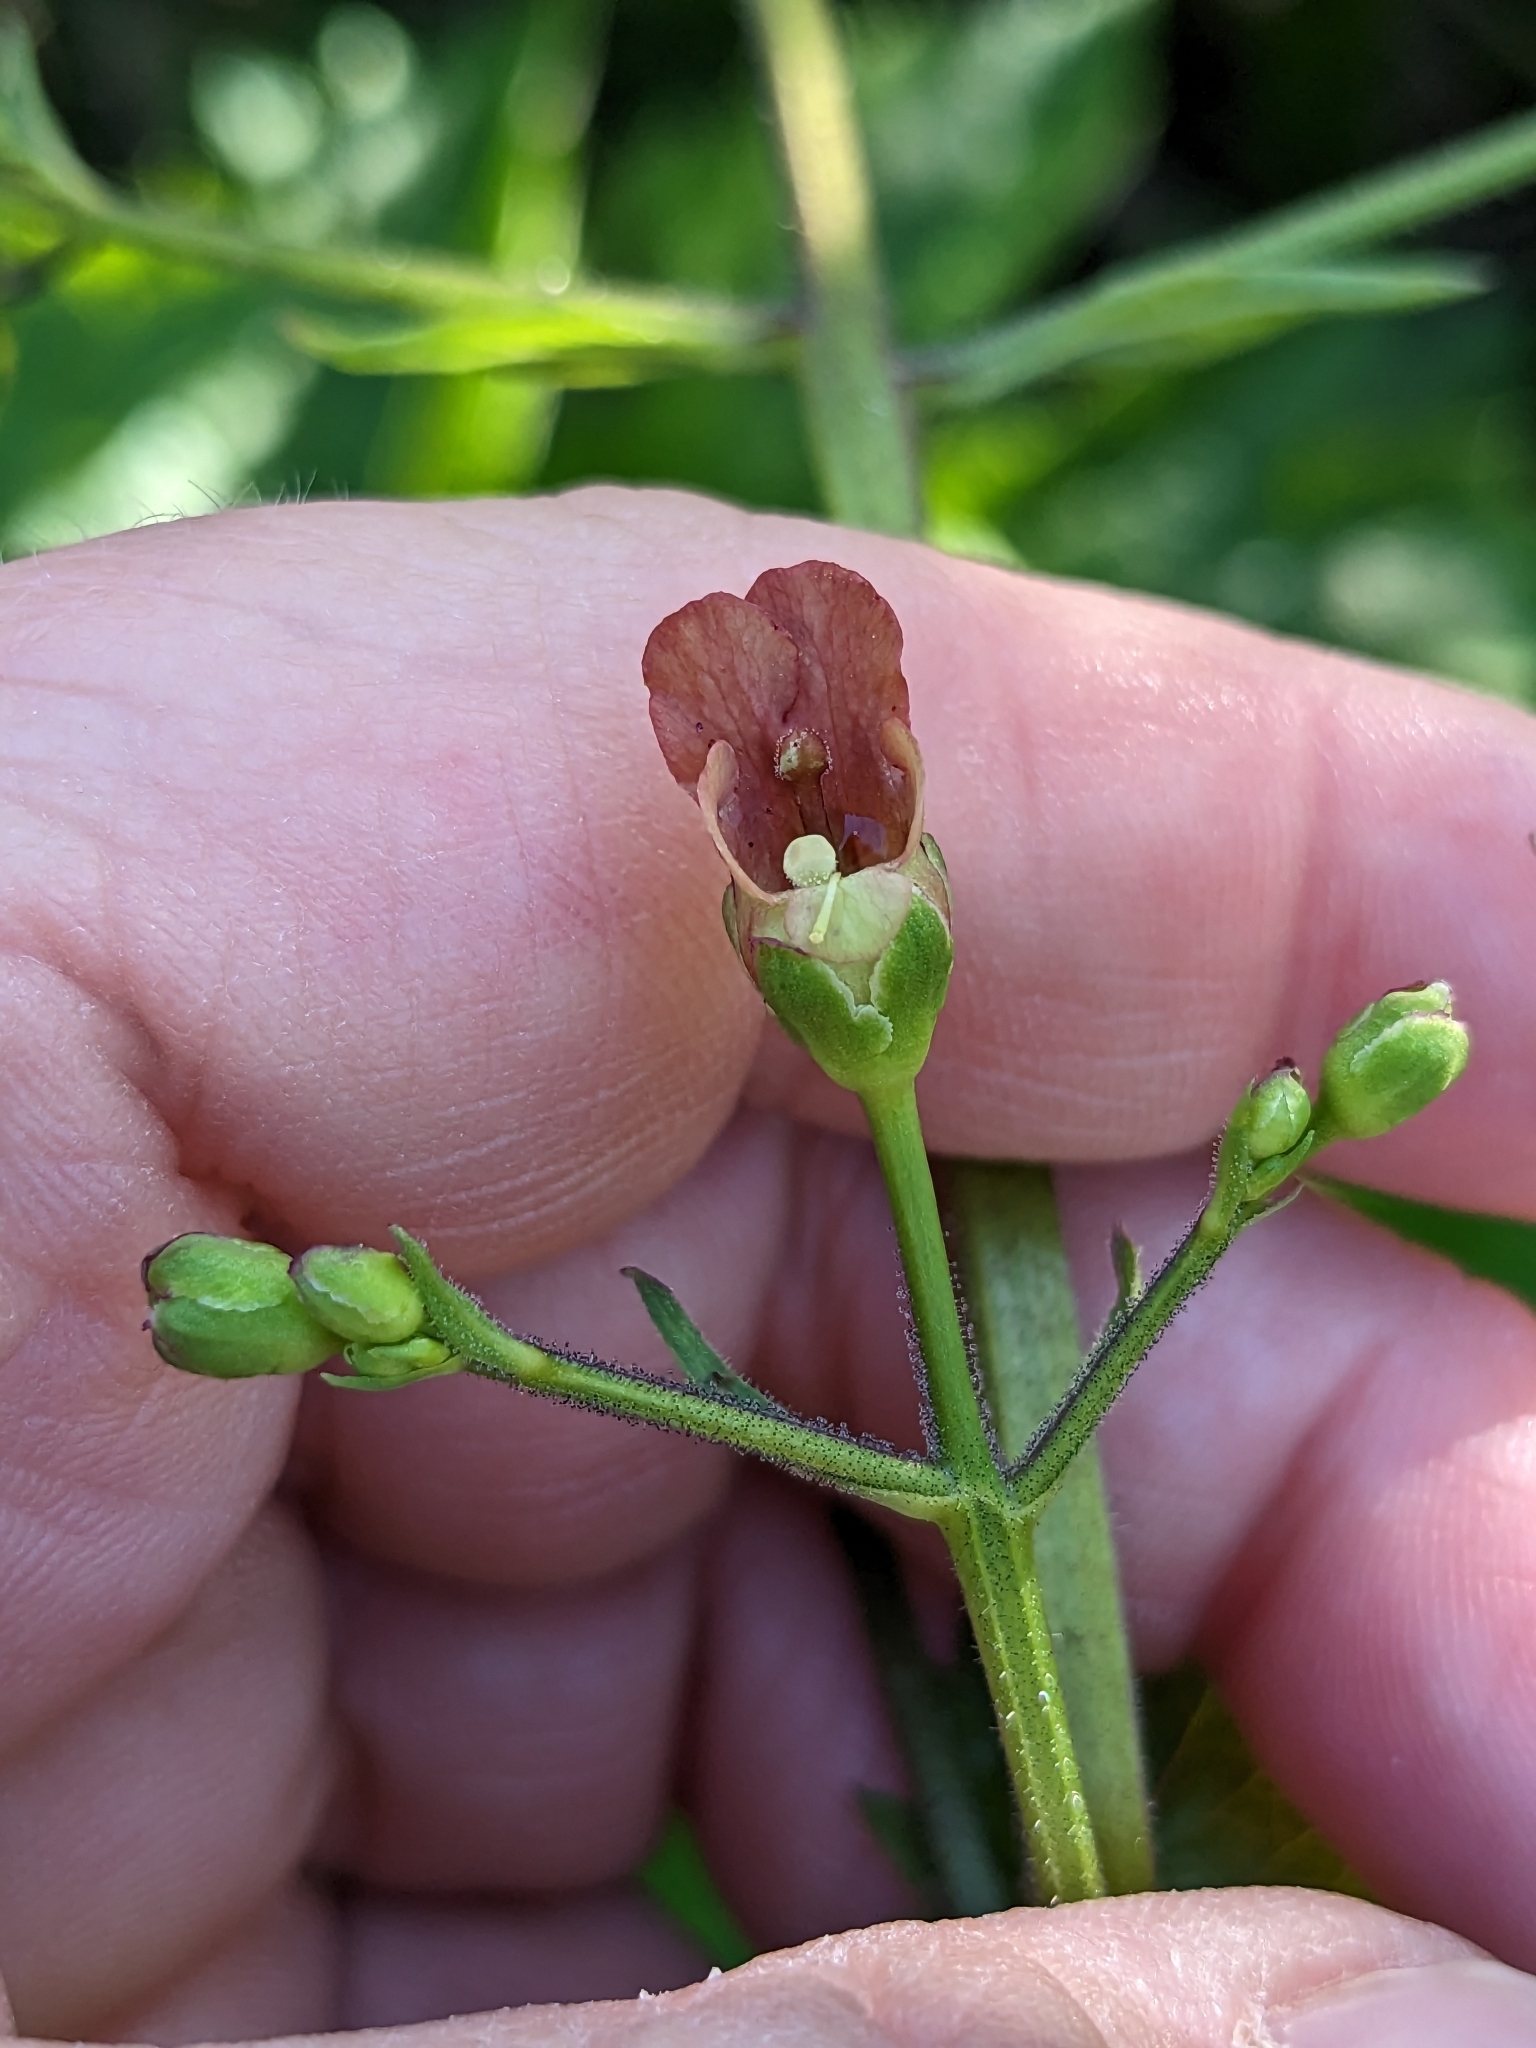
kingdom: Plantae
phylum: Tracheophyta
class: Magnoliopsida
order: Lamiales
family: Scrophulariaceae
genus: Scrophularia
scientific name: Scrophularia californica
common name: California figwort
